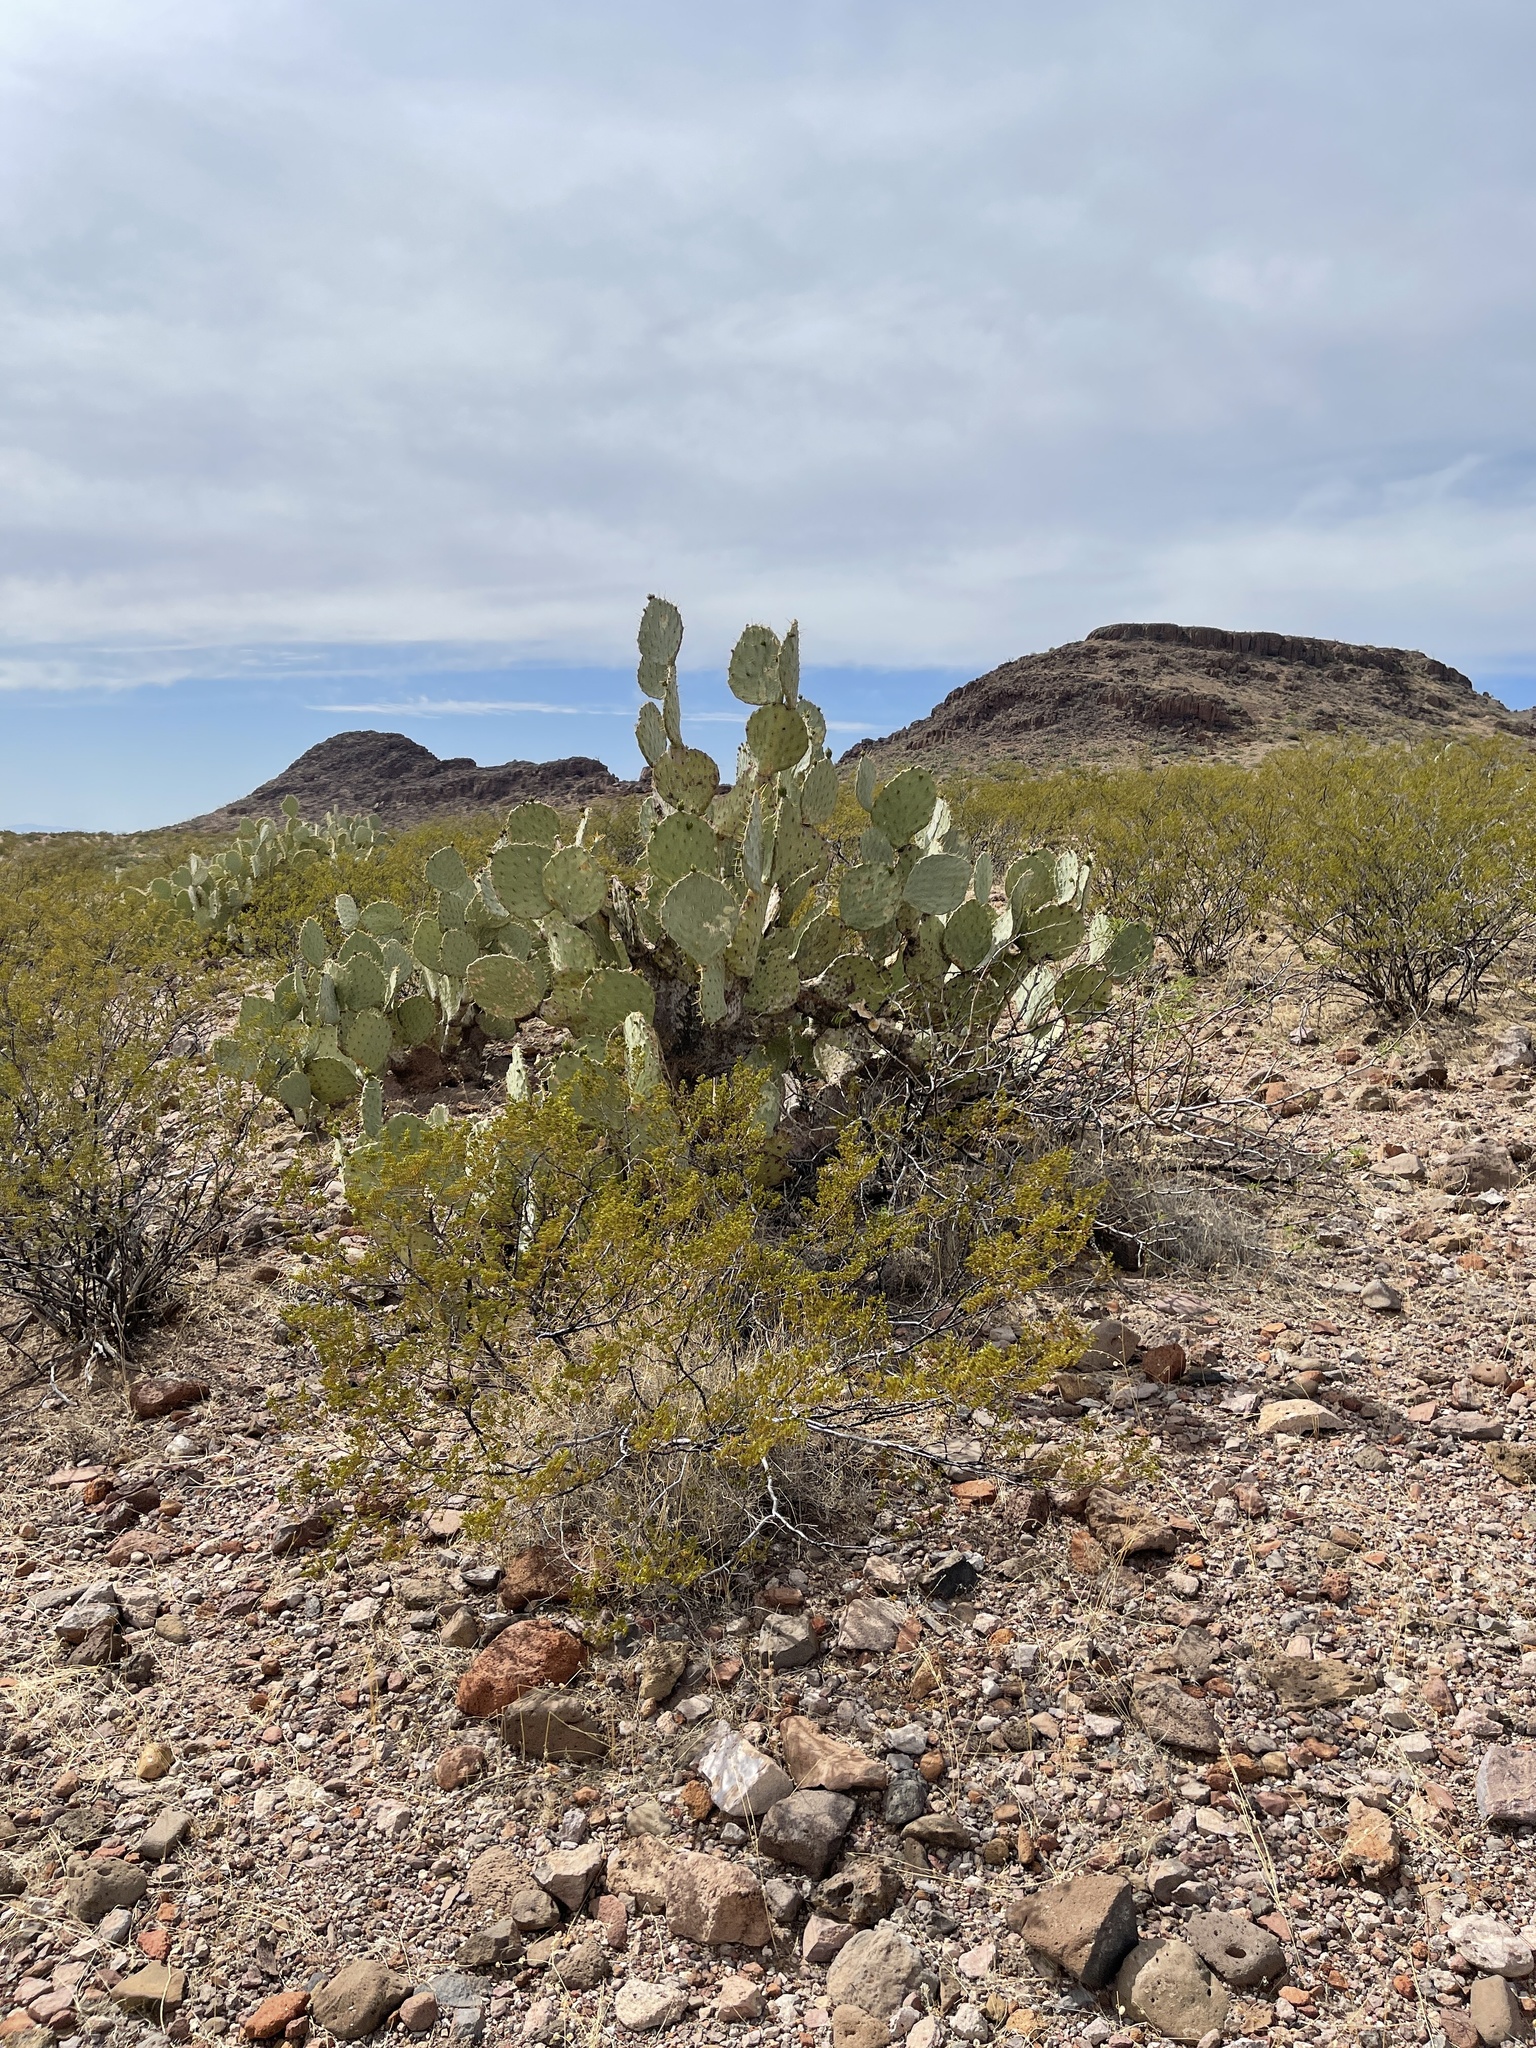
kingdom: Plantae
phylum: Tracheophyta
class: Magnoliopsida
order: Caryophyllales
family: Cactaceae
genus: Opuntia
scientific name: Opuntia engelmannii
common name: Cactus-apple
